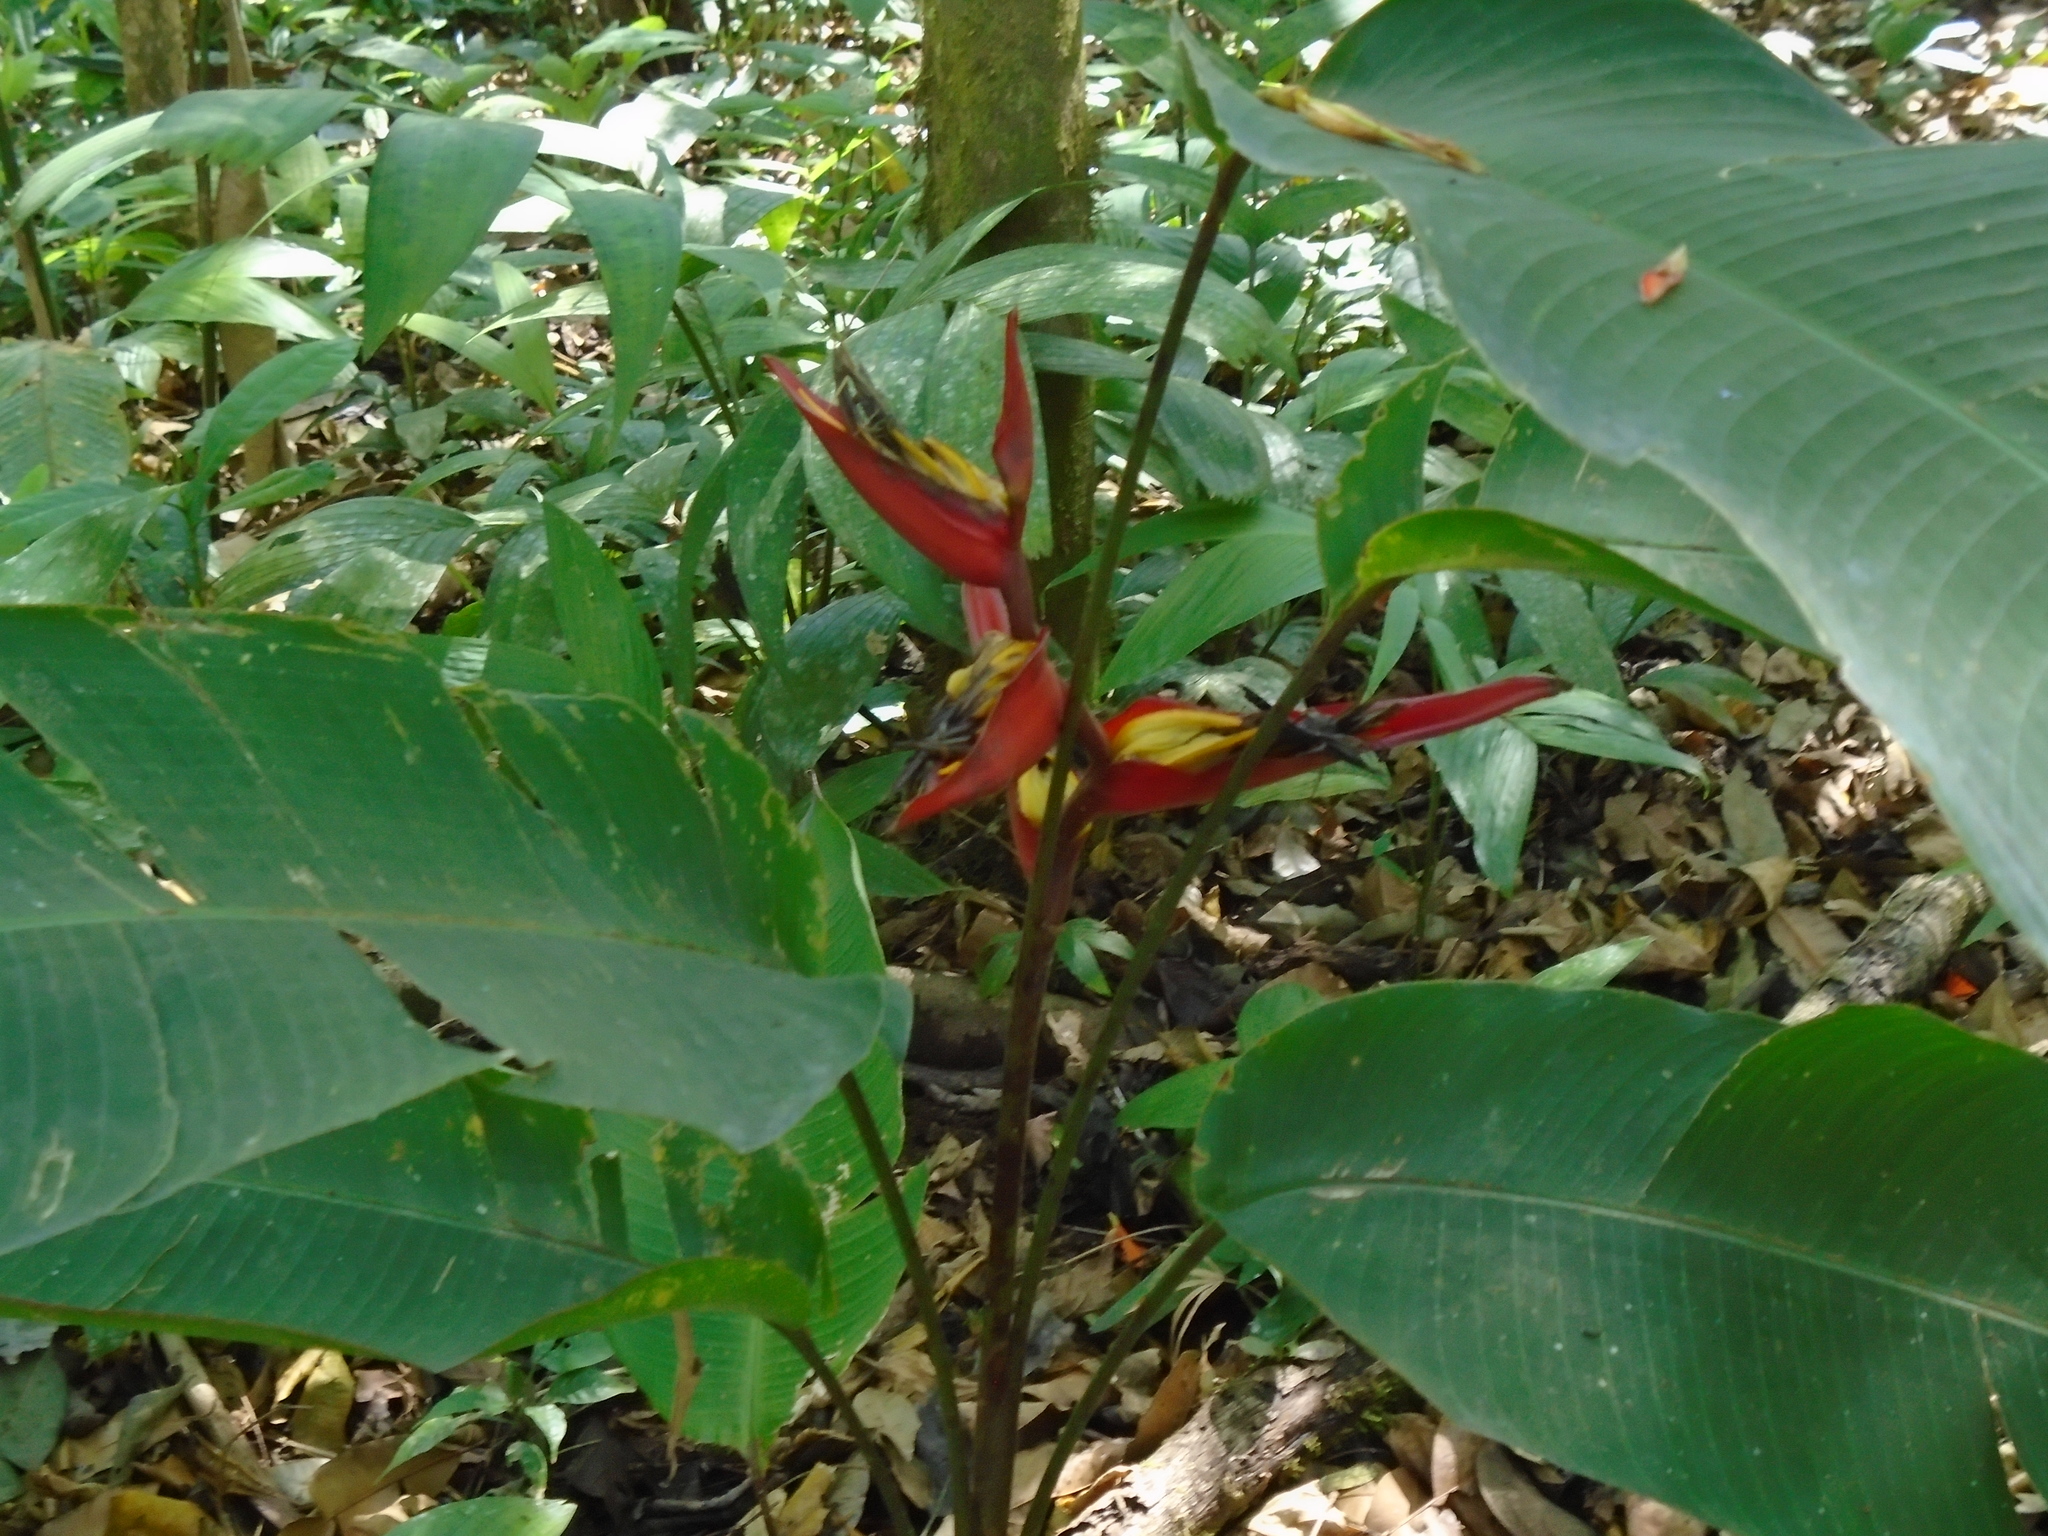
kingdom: Plantae
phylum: Tracheophyta
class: Liliopsida
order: Zingiberales
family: Heliconiaceae
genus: Heliconia
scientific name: Heliconia tortuosa
